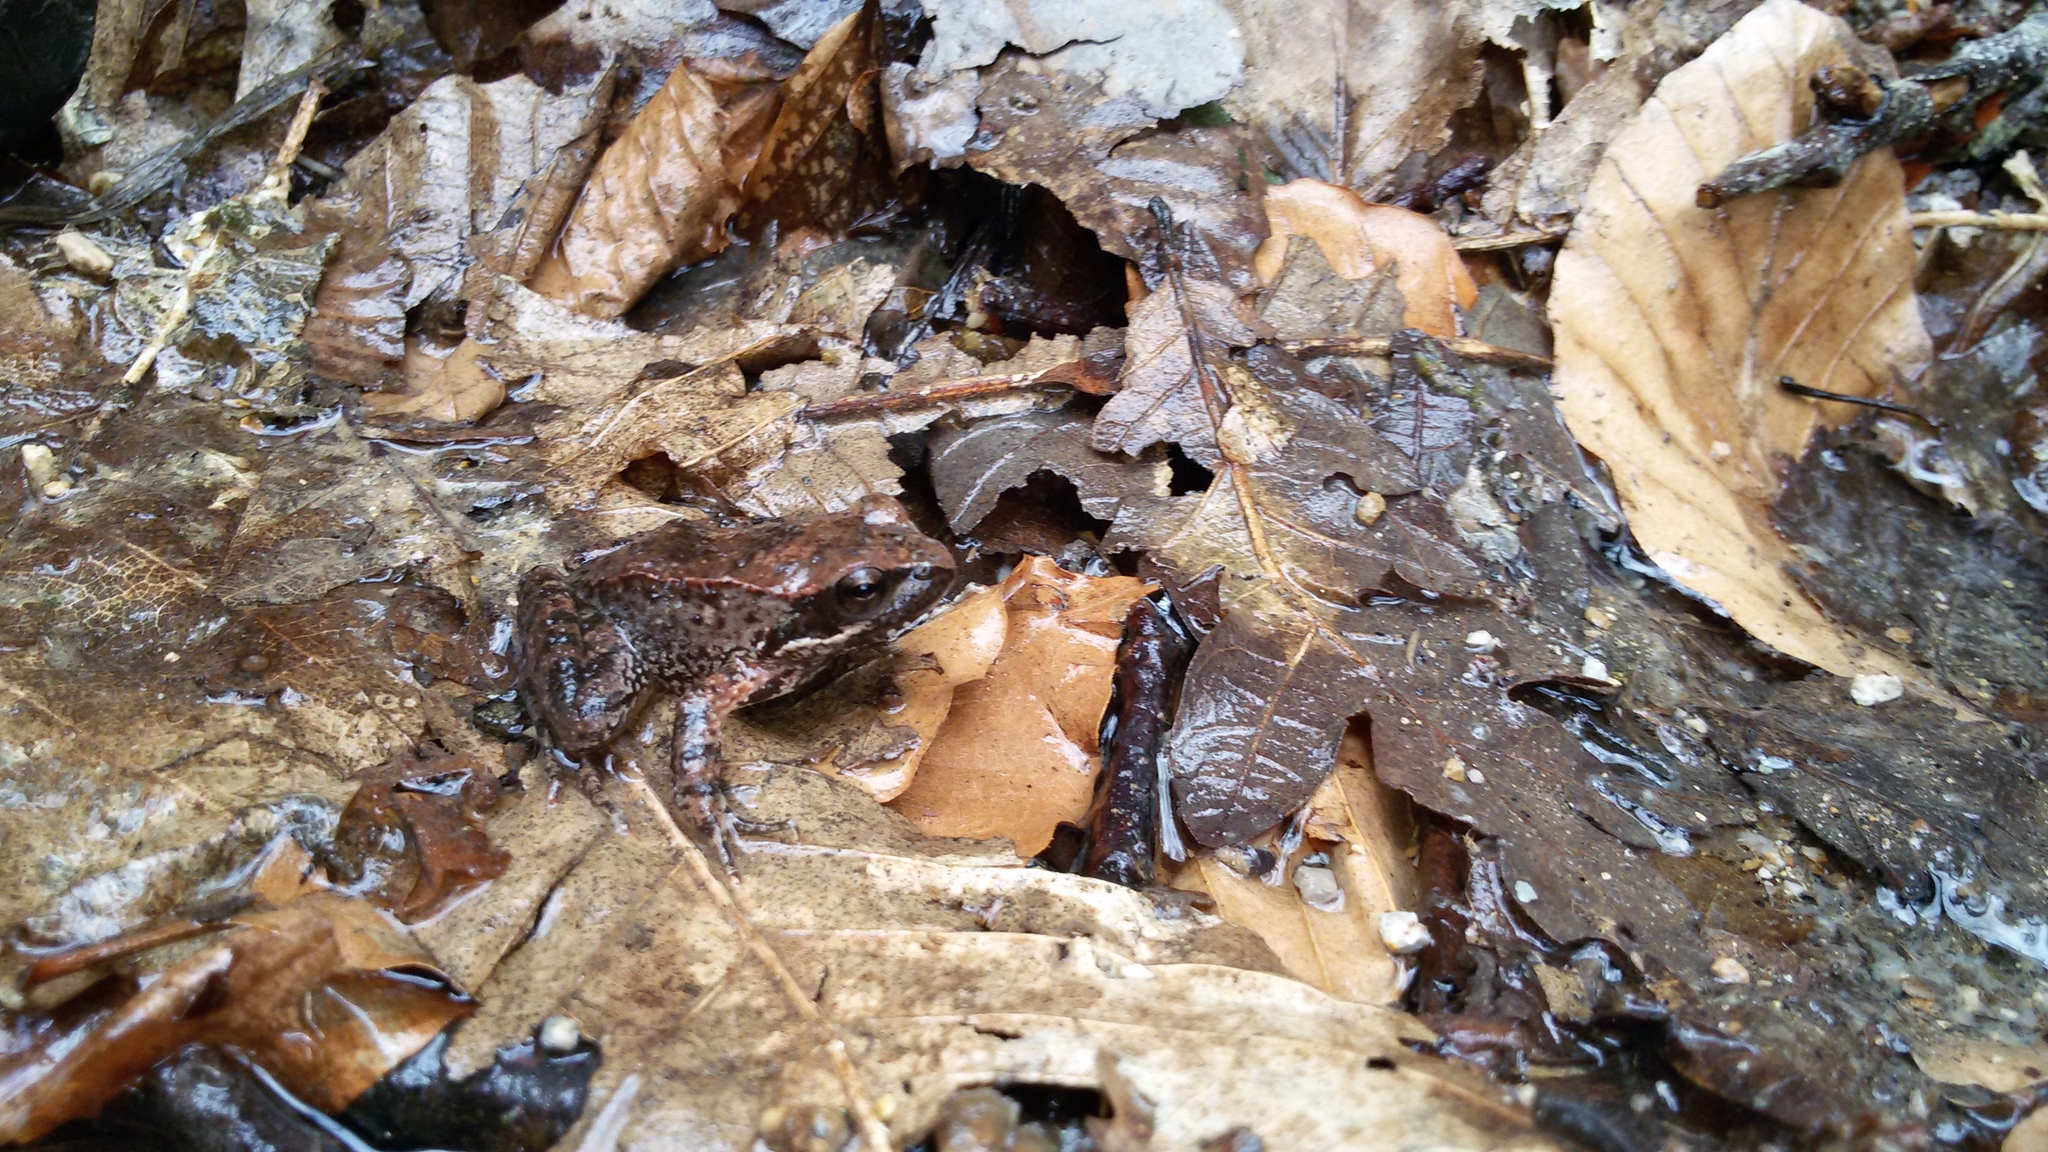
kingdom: Animalia
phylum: Chordata
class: Amphibia
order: Anura
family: Ranidae
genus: Rana
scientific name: Rana italica
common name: Italian stream frog
